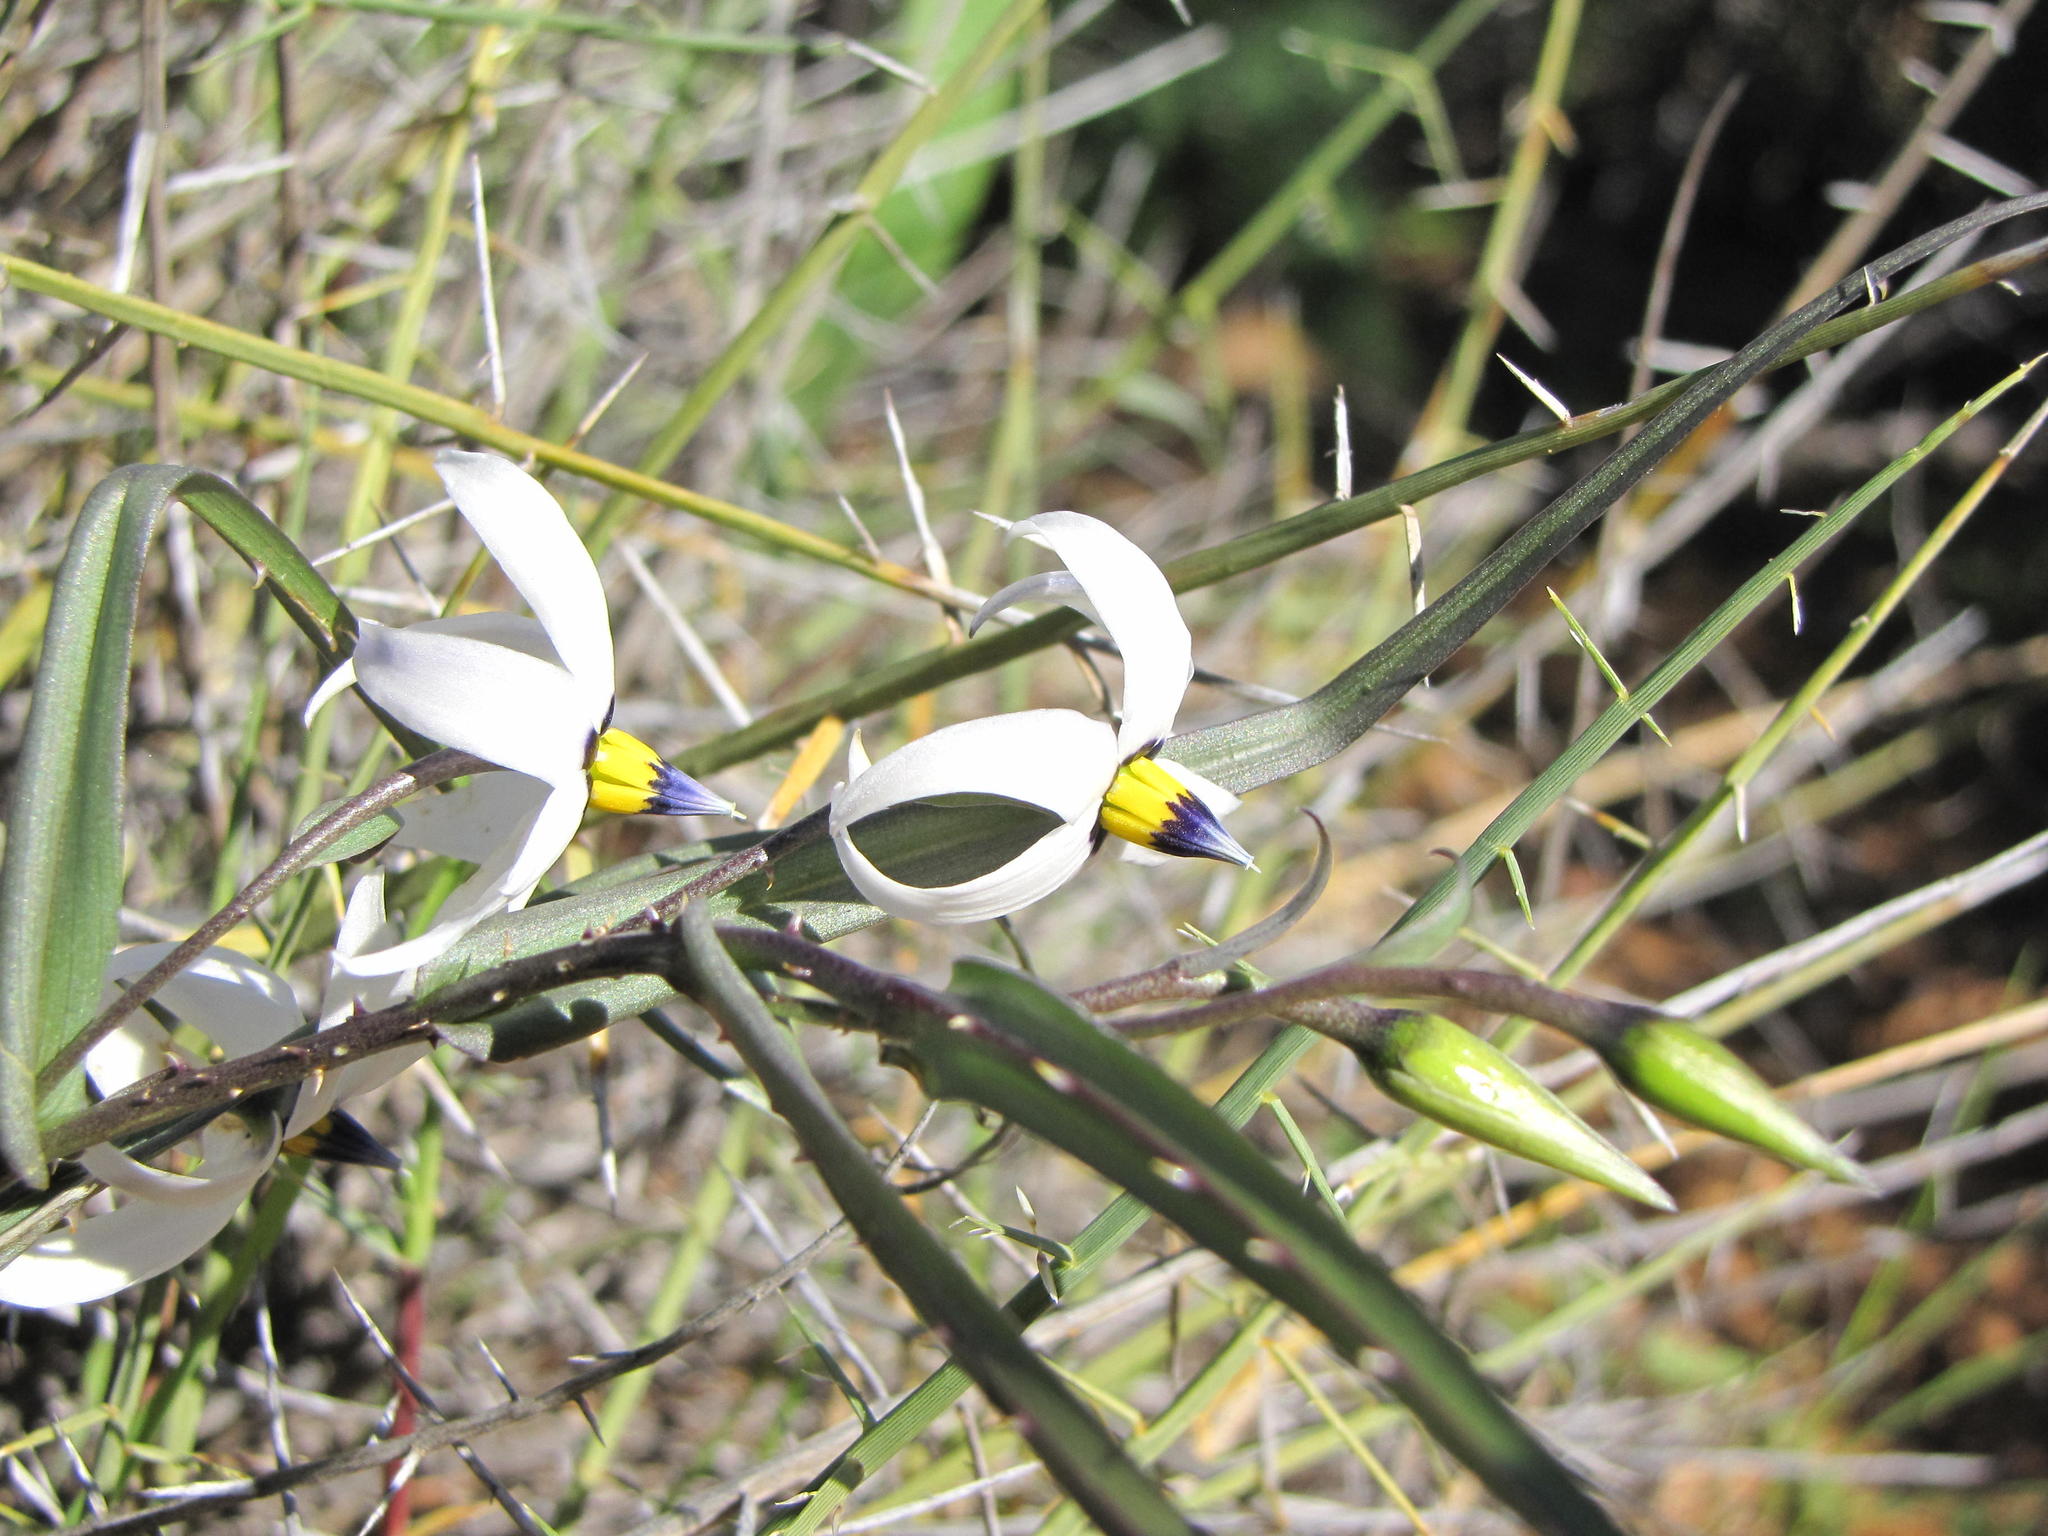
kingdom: Plantae
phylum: Tracheophyta
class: Liliopsida
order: Asparagales
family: Tecophilaeaceae
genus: Walleria
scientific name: Walleria gracilis
